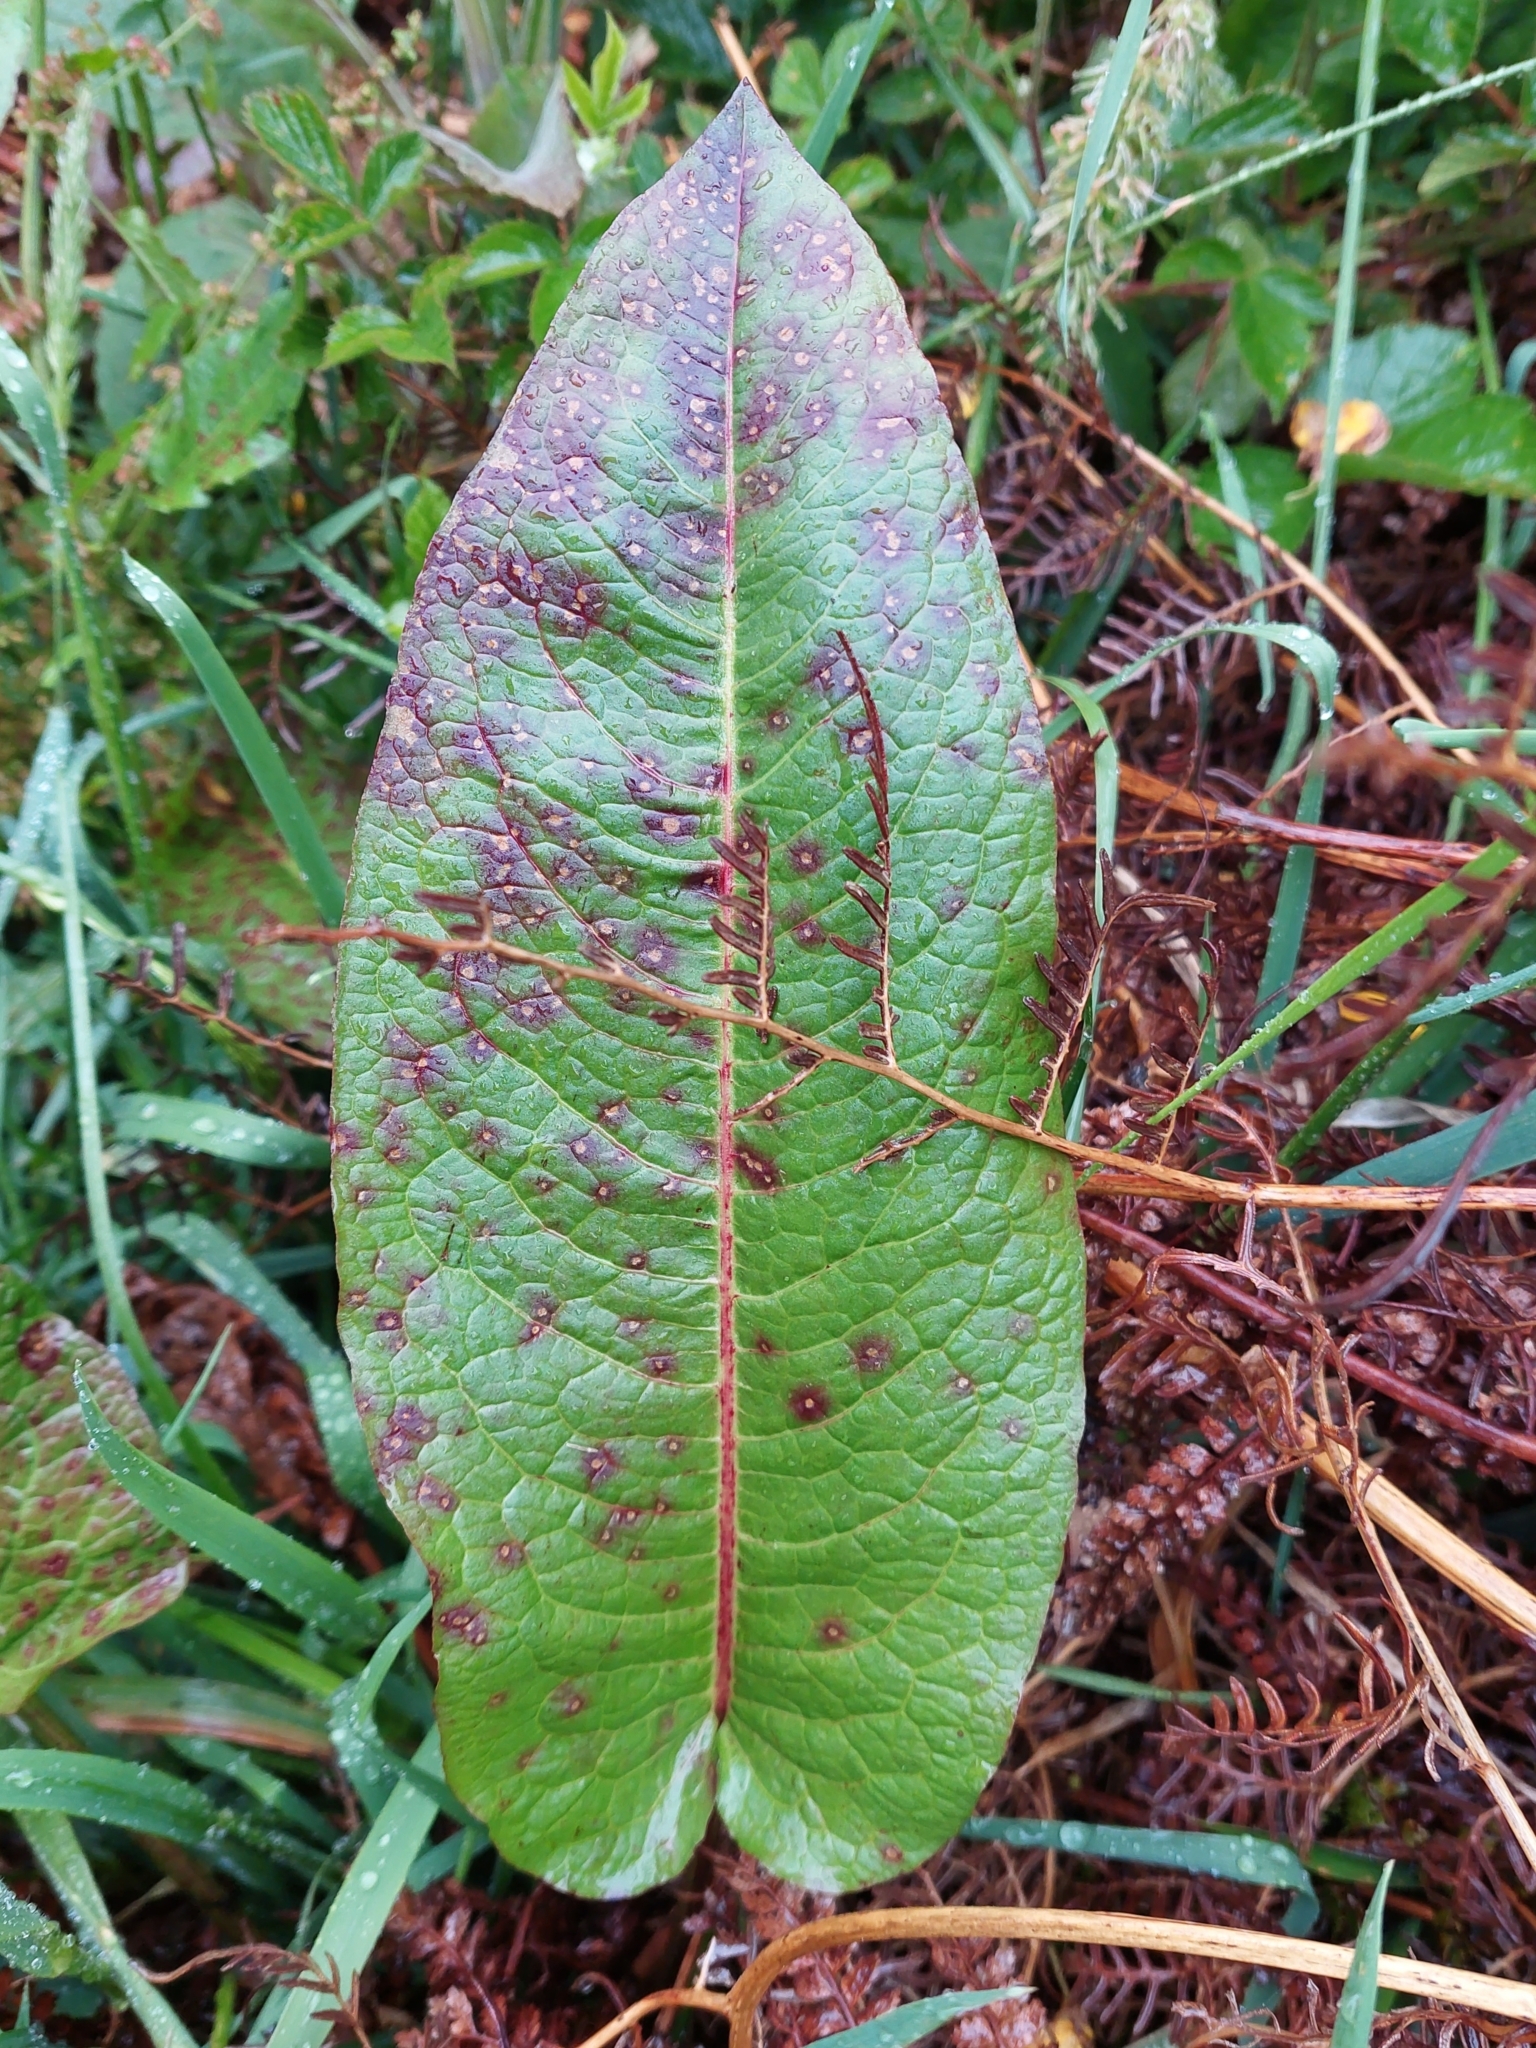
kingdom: Plantae
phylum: Tracheophyta
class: Magnoliopsida
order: Caryophyllales
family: Polygonaceae
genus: Rumex
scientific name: Rumex obtusifolius
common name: Bitter dock
